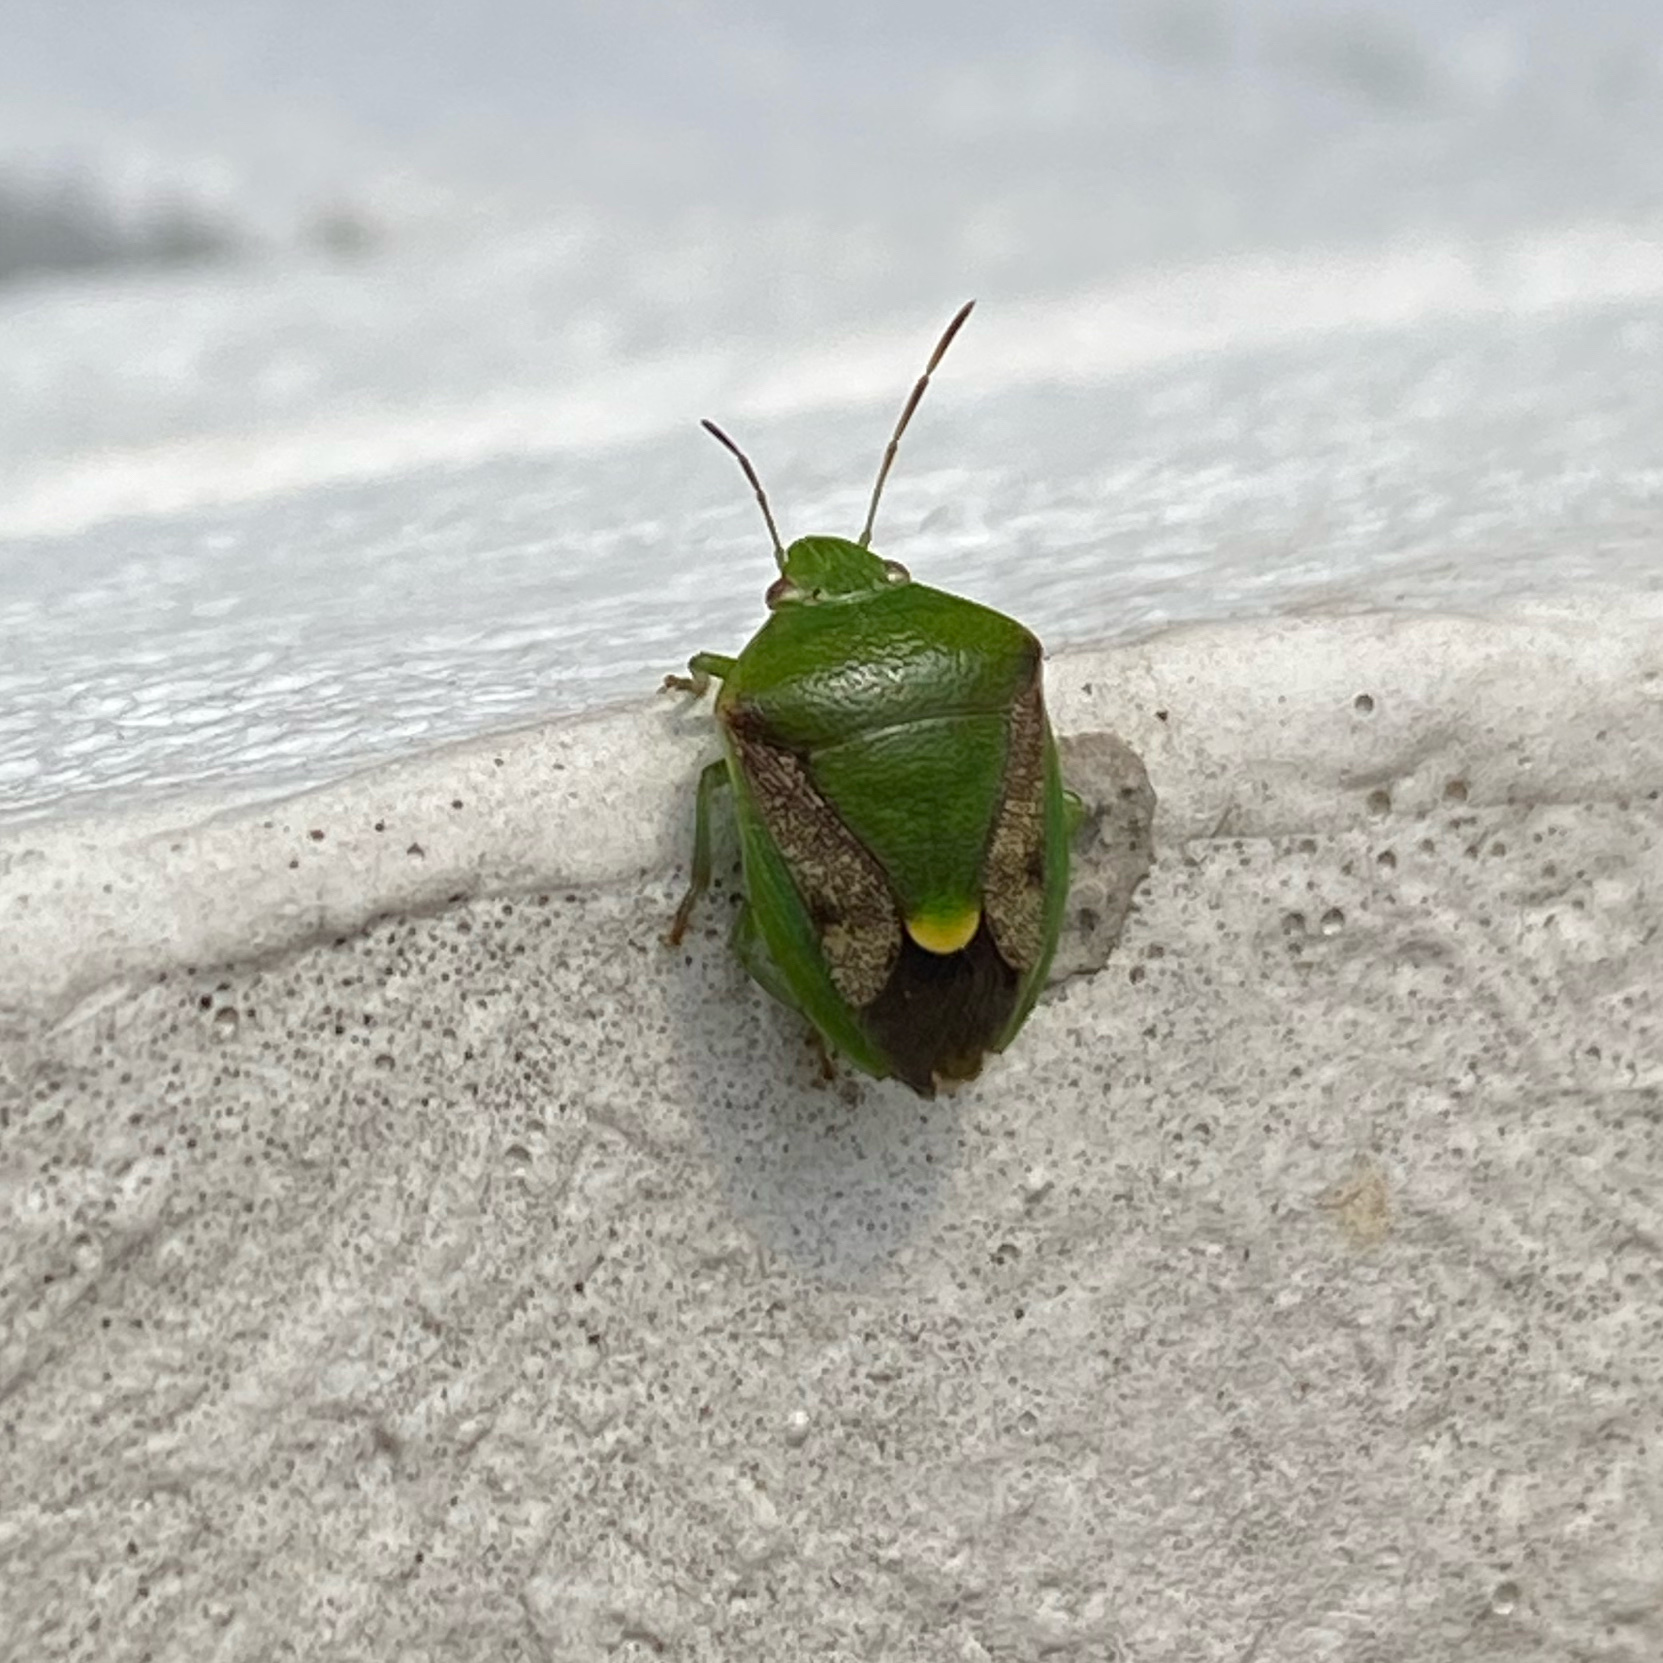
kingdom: Animalia
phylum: Arthropoda
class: Insecta
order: Hemiptera
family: Pentatomidae
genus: Plautia
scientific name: Plautia affinis
